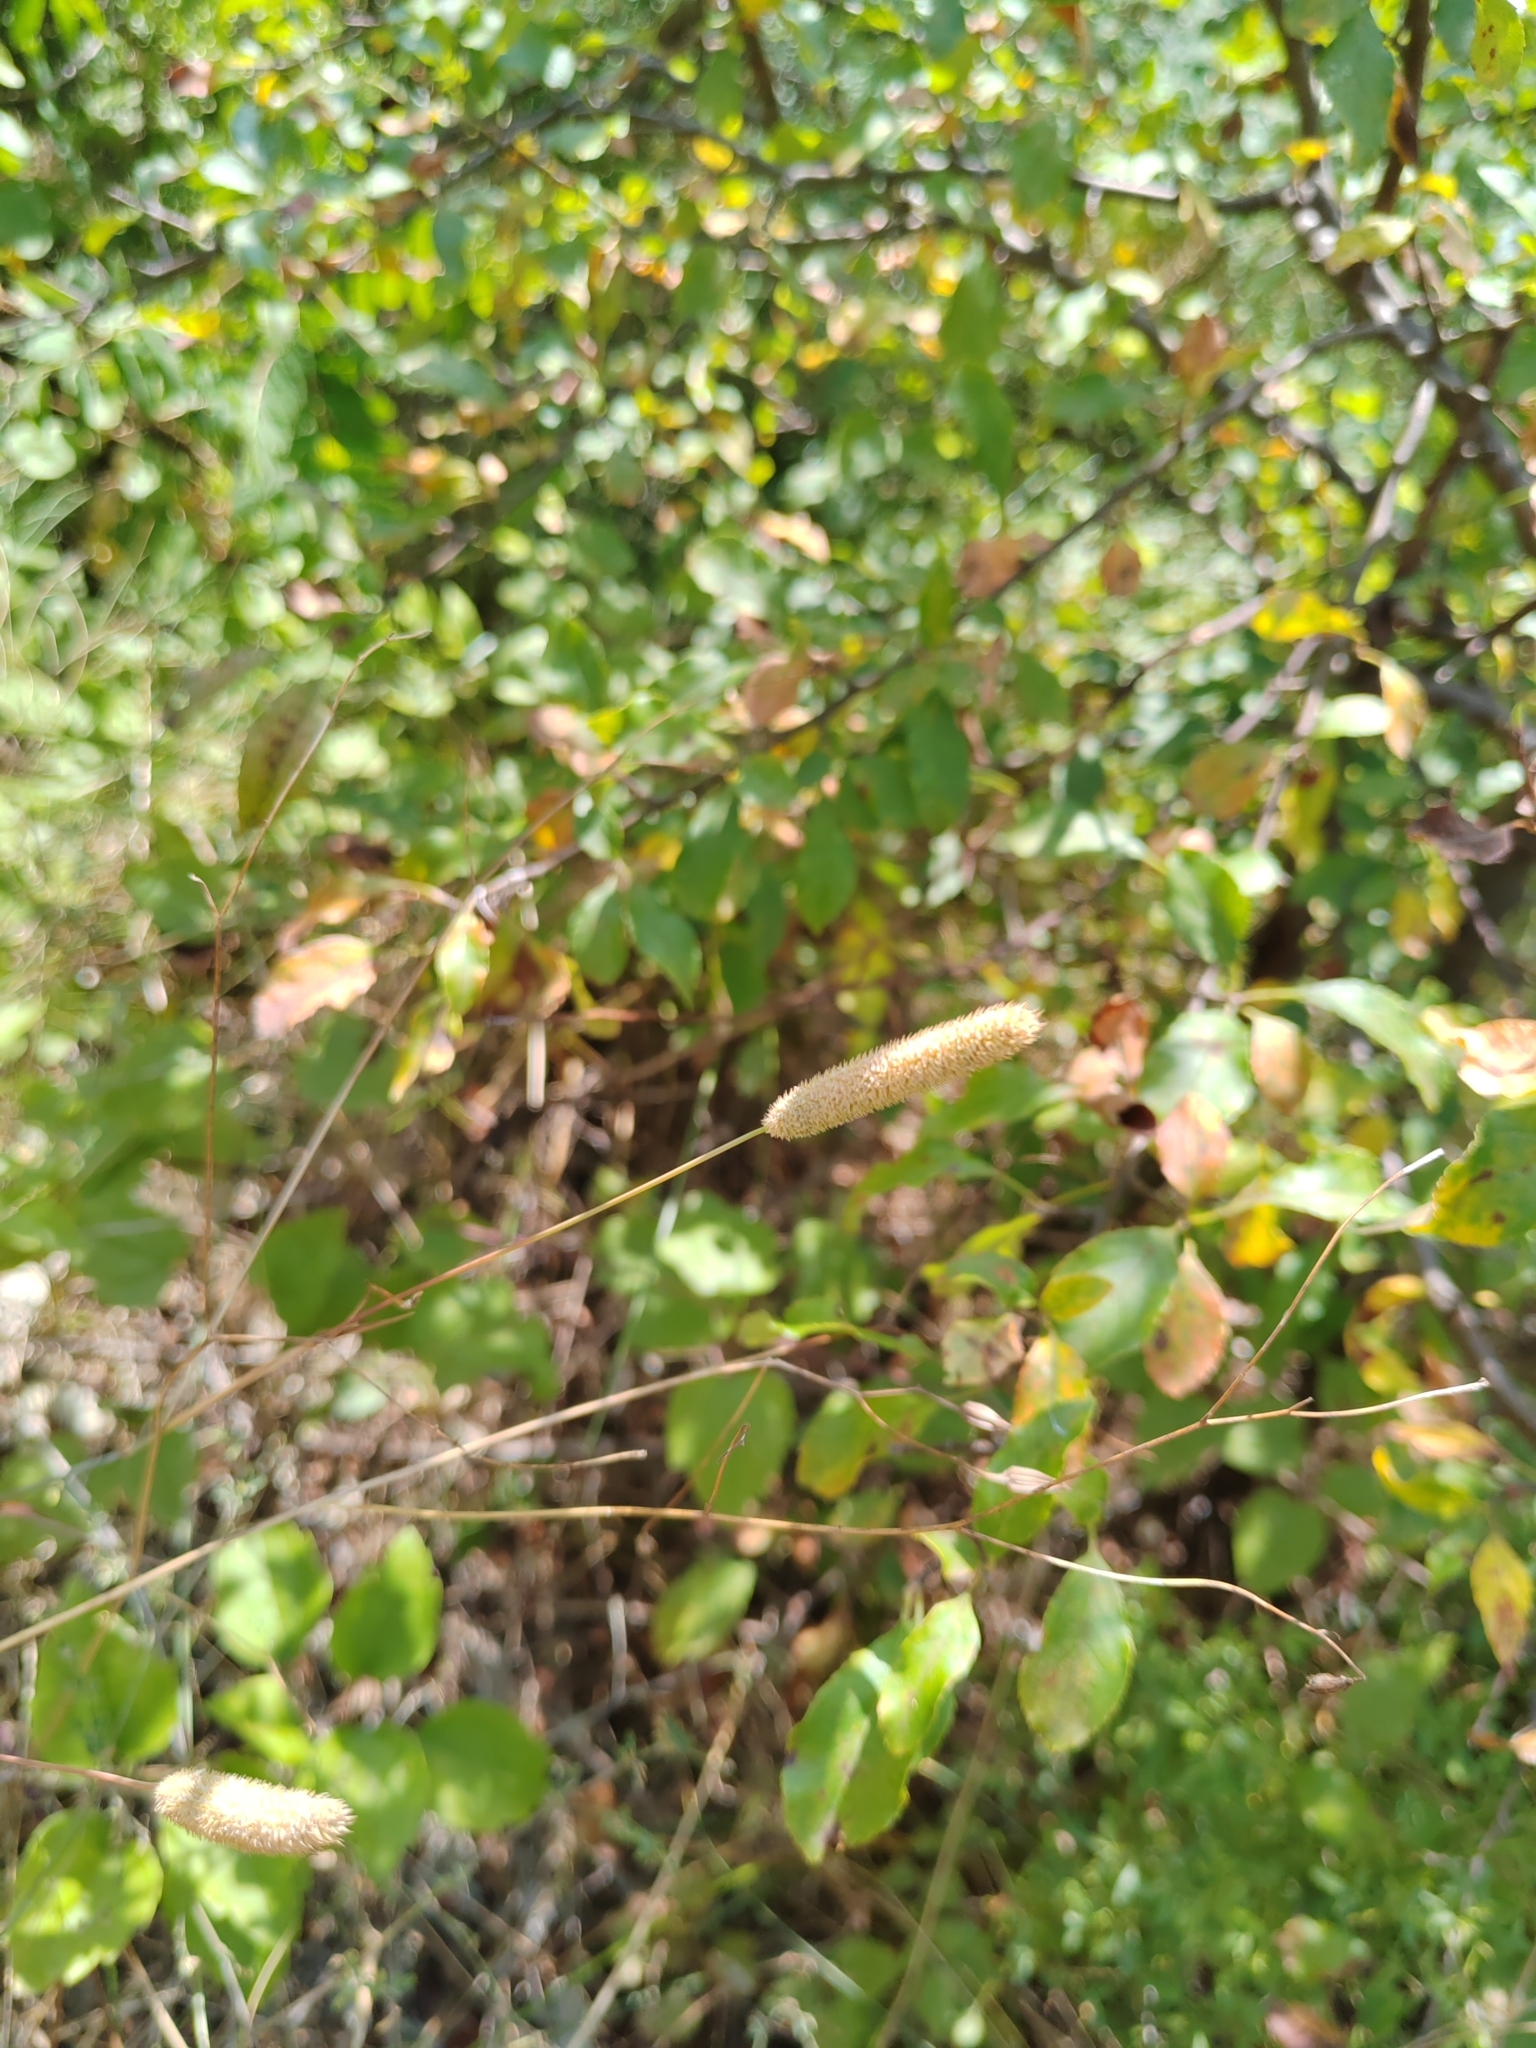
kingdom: Plantae
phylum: Tracheophyta
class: Liliopsida
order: Poales
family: Poaceae
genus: Phleum
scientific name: Phleum pratense
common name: Timothy grass
